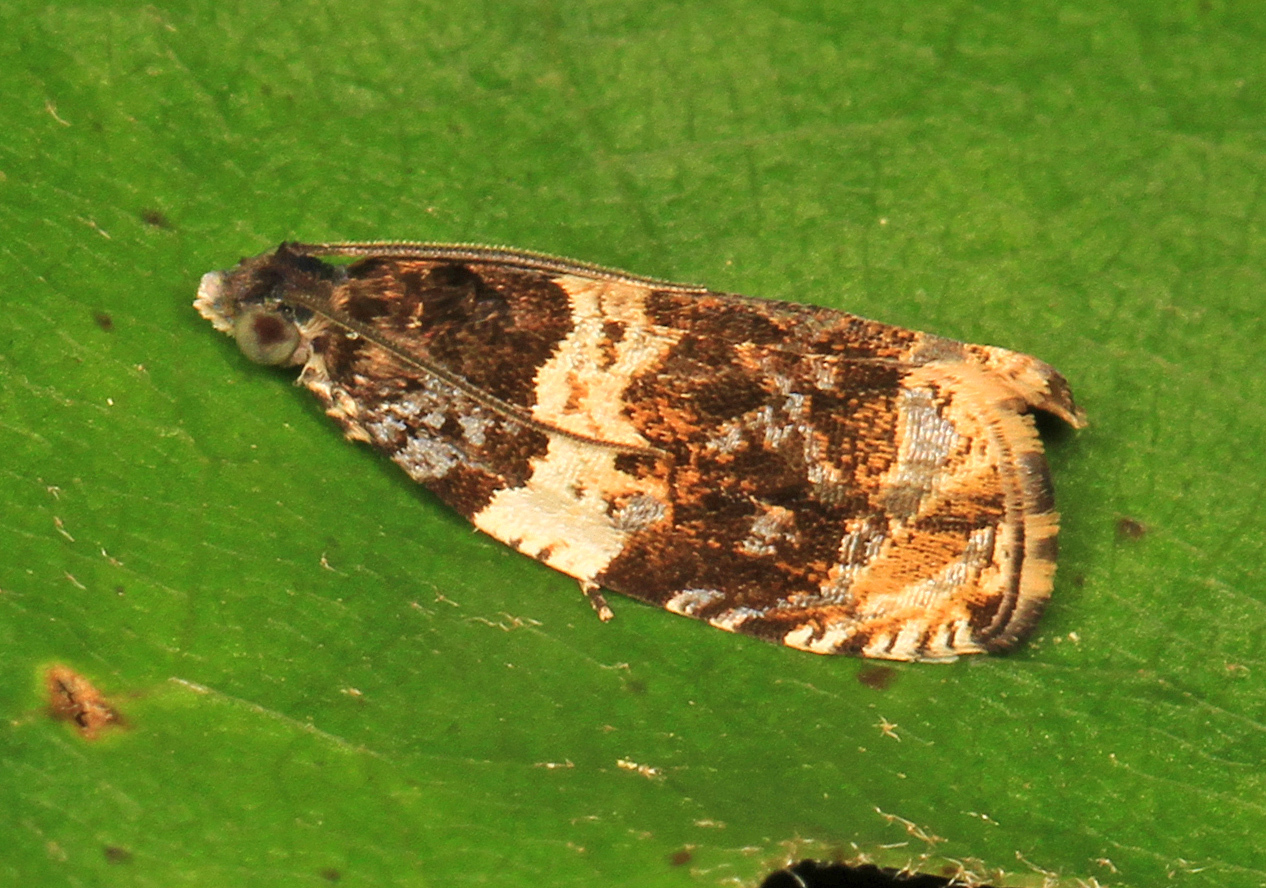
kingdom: Animalia
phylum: Arthropoda
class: Insecta
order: Lepidoptera
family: Tortricidae
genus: Olethreutes
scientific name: Olethreutes fasciatana
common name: Banded olethreutes moth
